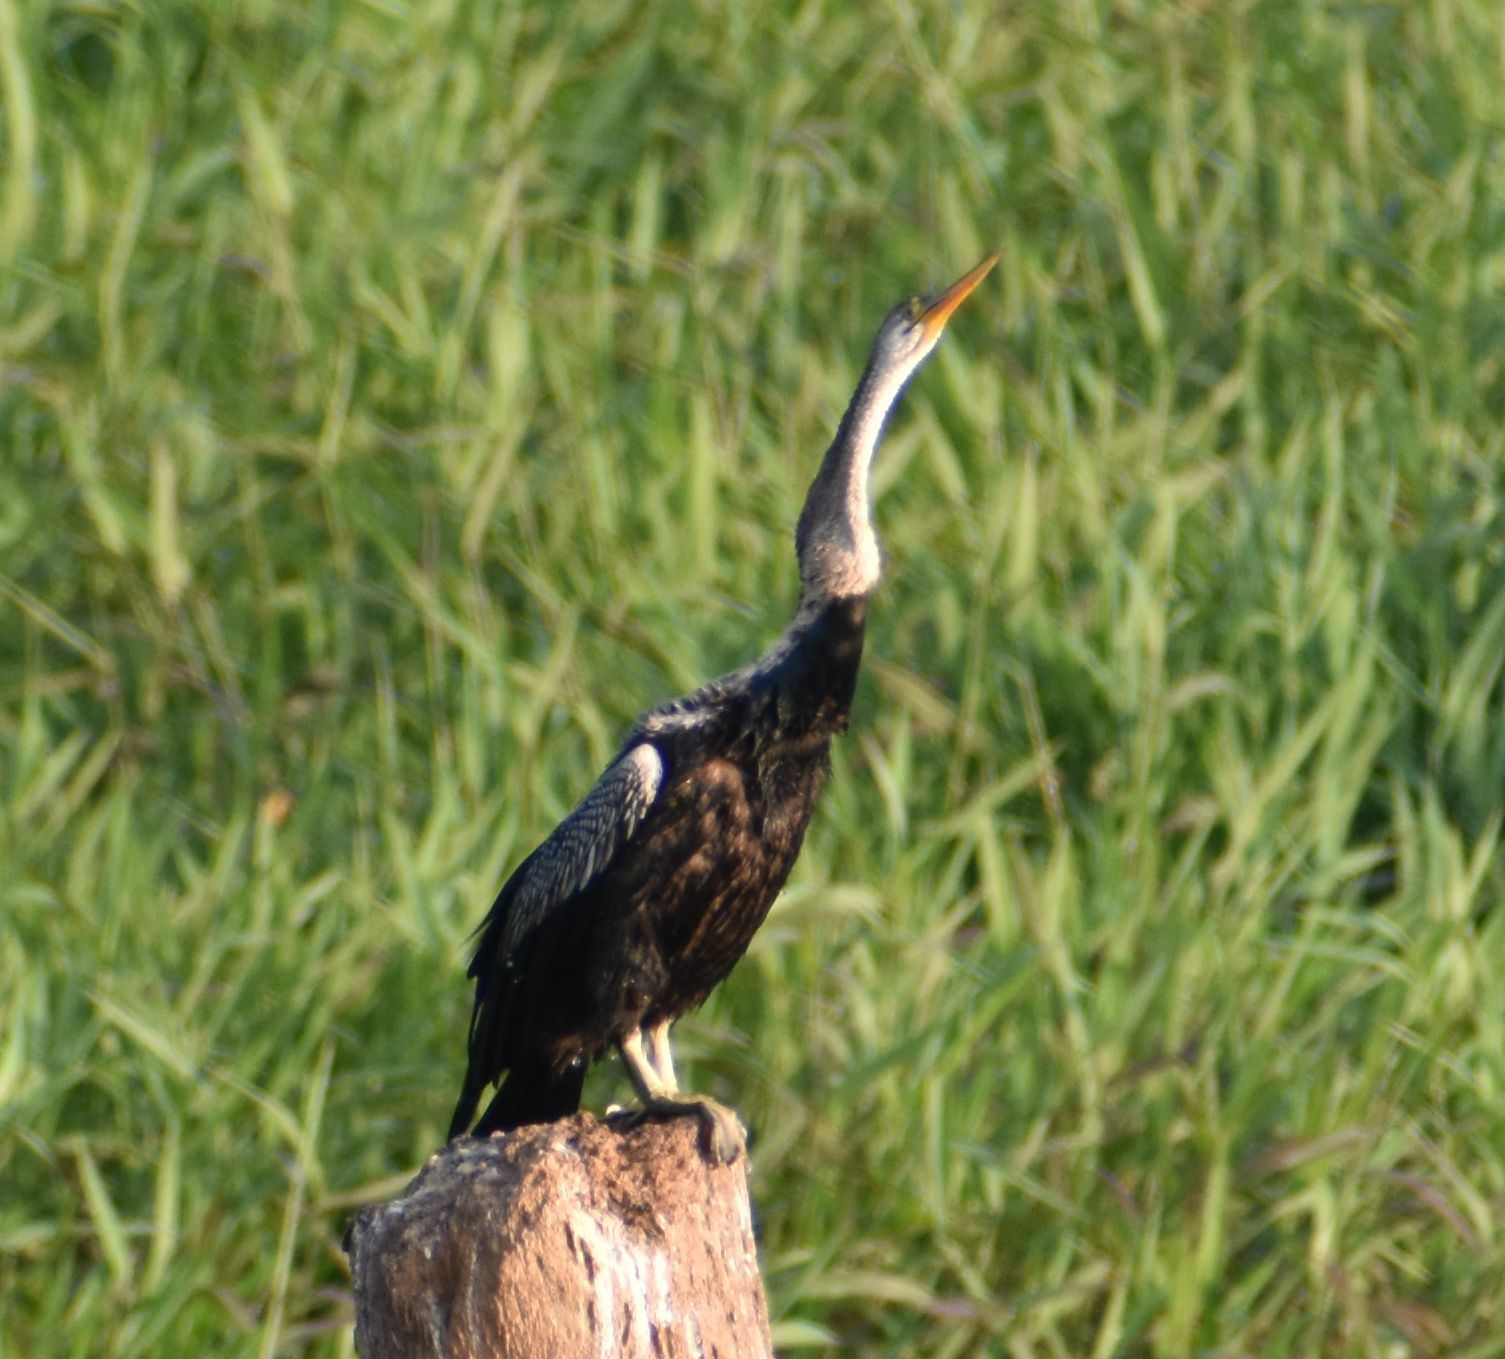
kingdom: Animalia
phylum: Chordata
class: Aves
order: Suliformes
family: Anhingidae
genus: Anhinga
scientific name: Anhinga melanogaster
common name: Oriental darter
